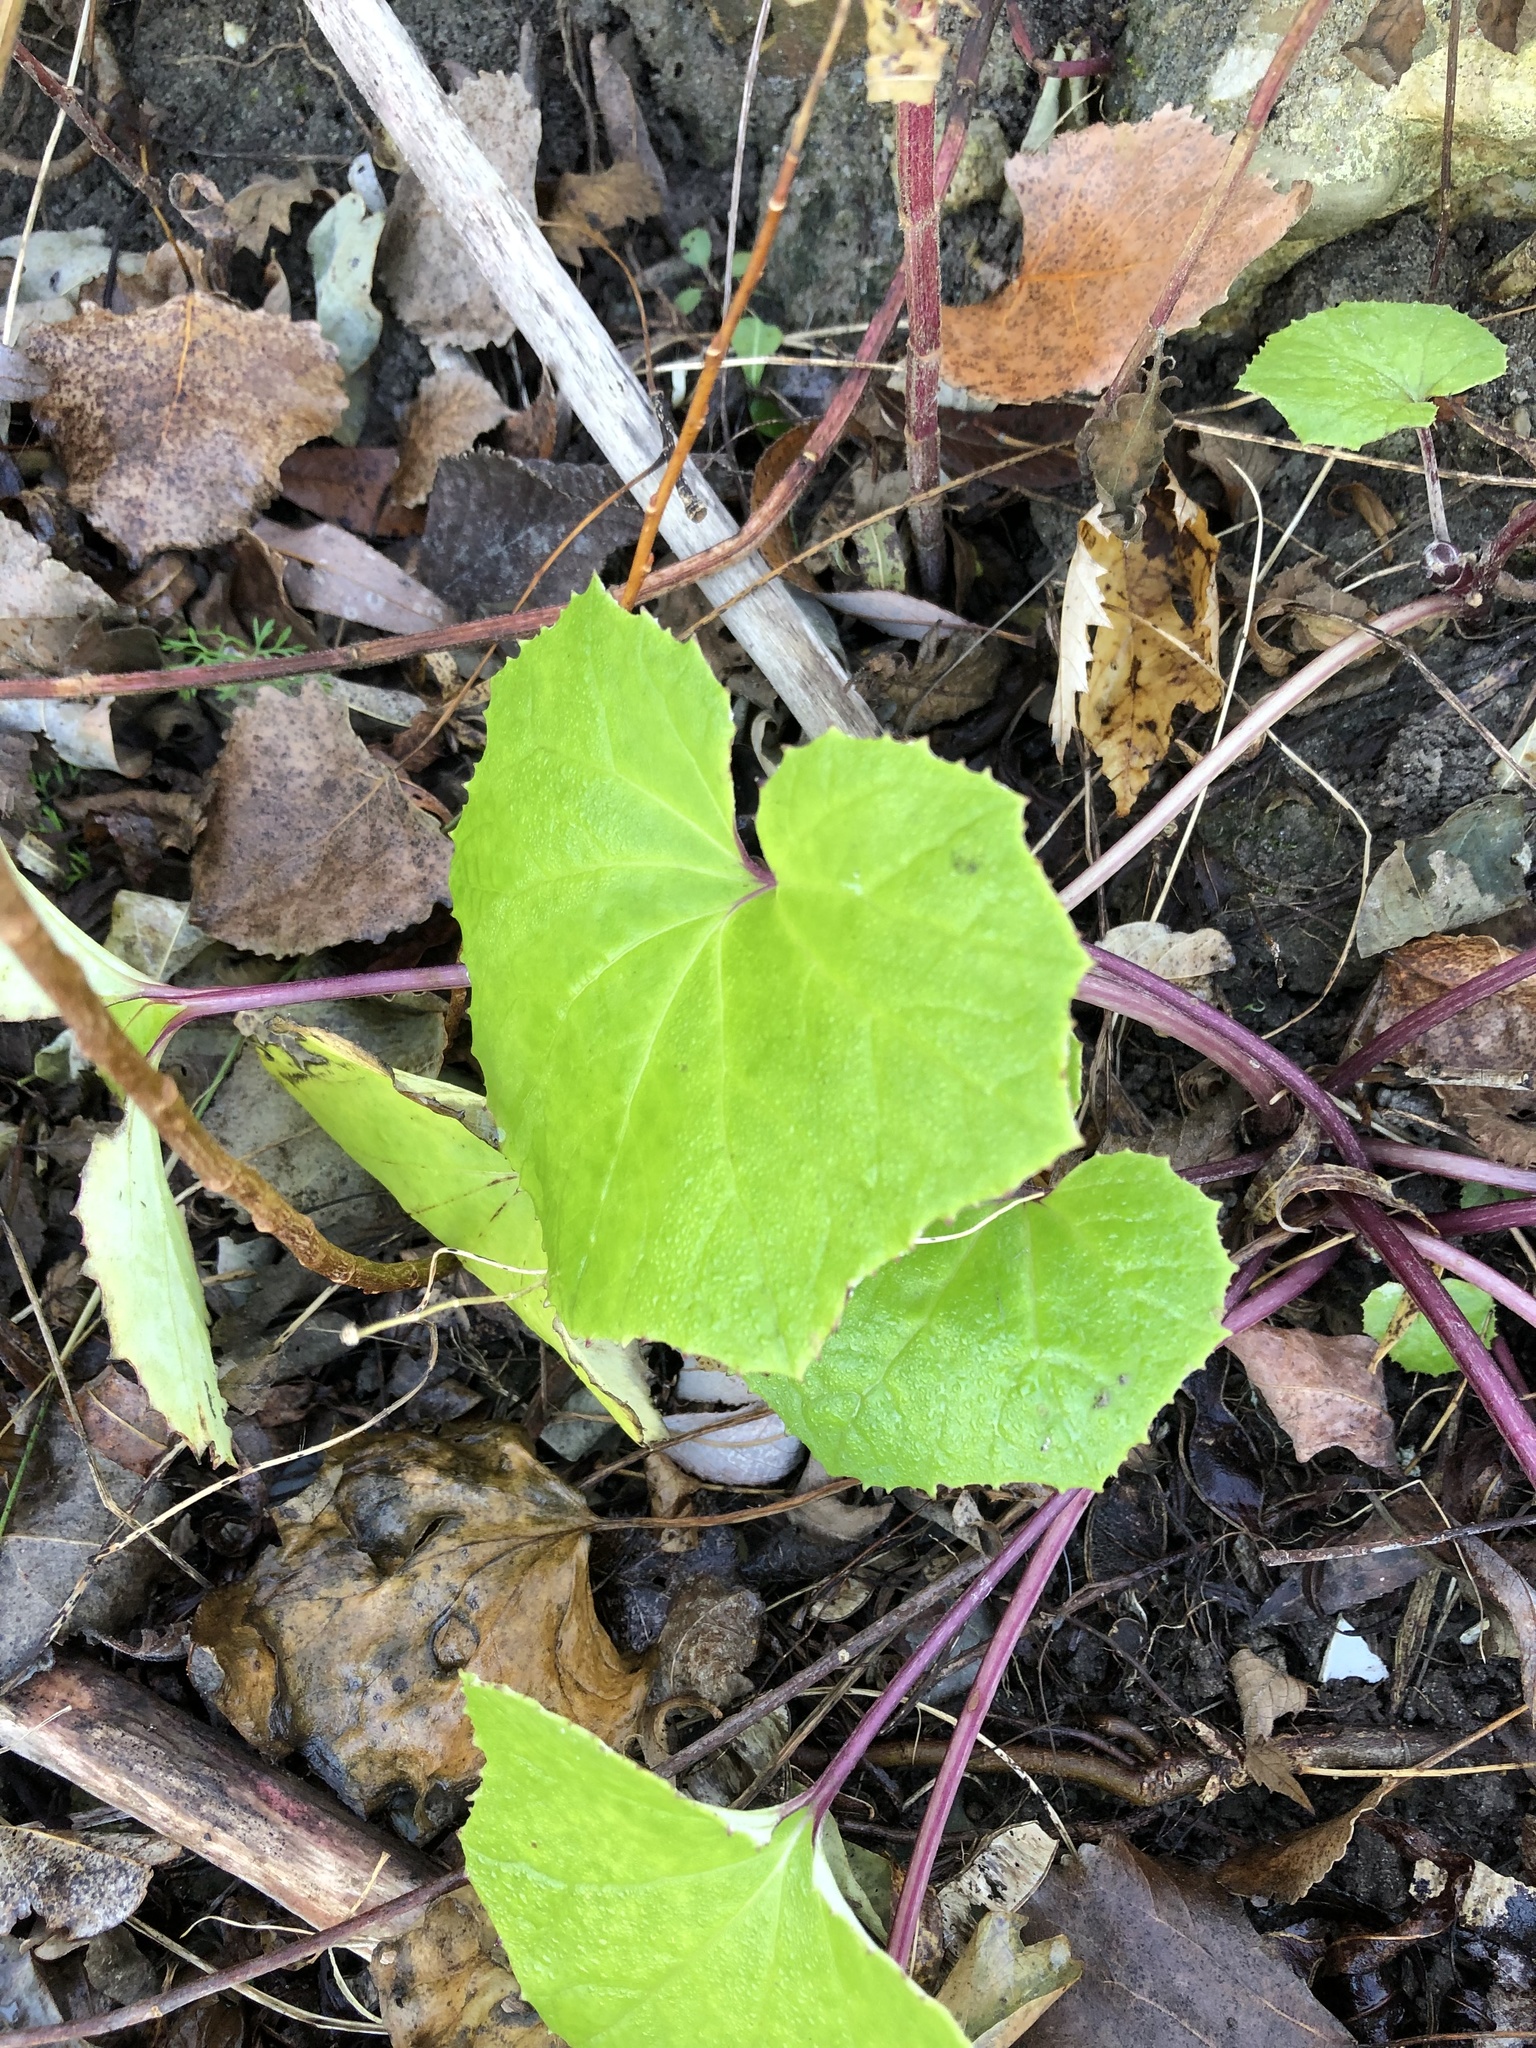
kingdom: Plantae
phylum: Tracheophyta
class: Magnoliopsida
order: Asterales
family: Asteraceae
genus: Tussilago
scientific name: Tussilago farfara
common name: Coltsfoot
